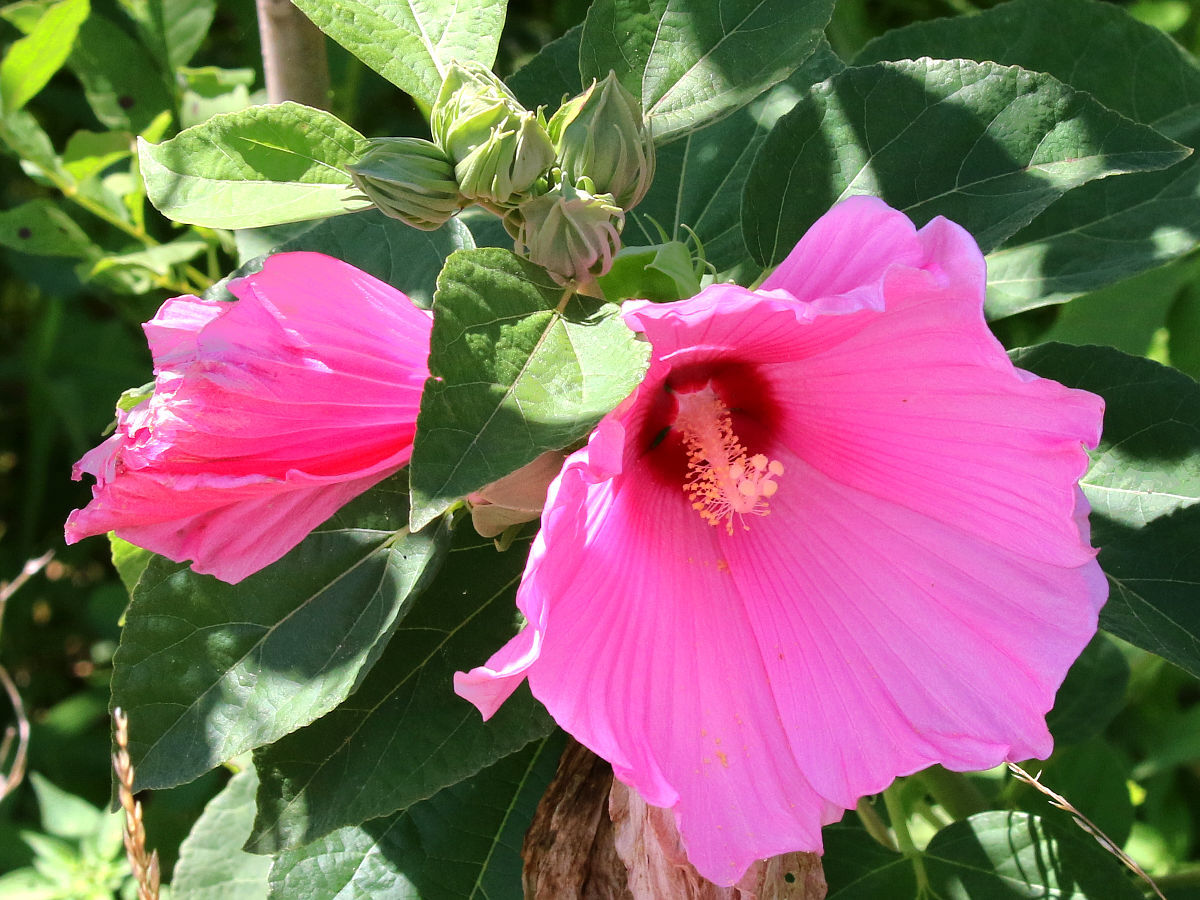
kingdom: Plantae
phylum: Tracheophyta
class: Magnoliopsida
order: Malvales
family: Malvaceae
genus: Hibiscus
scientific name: Hibiscus moscheutos
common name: Common rose-mallow
